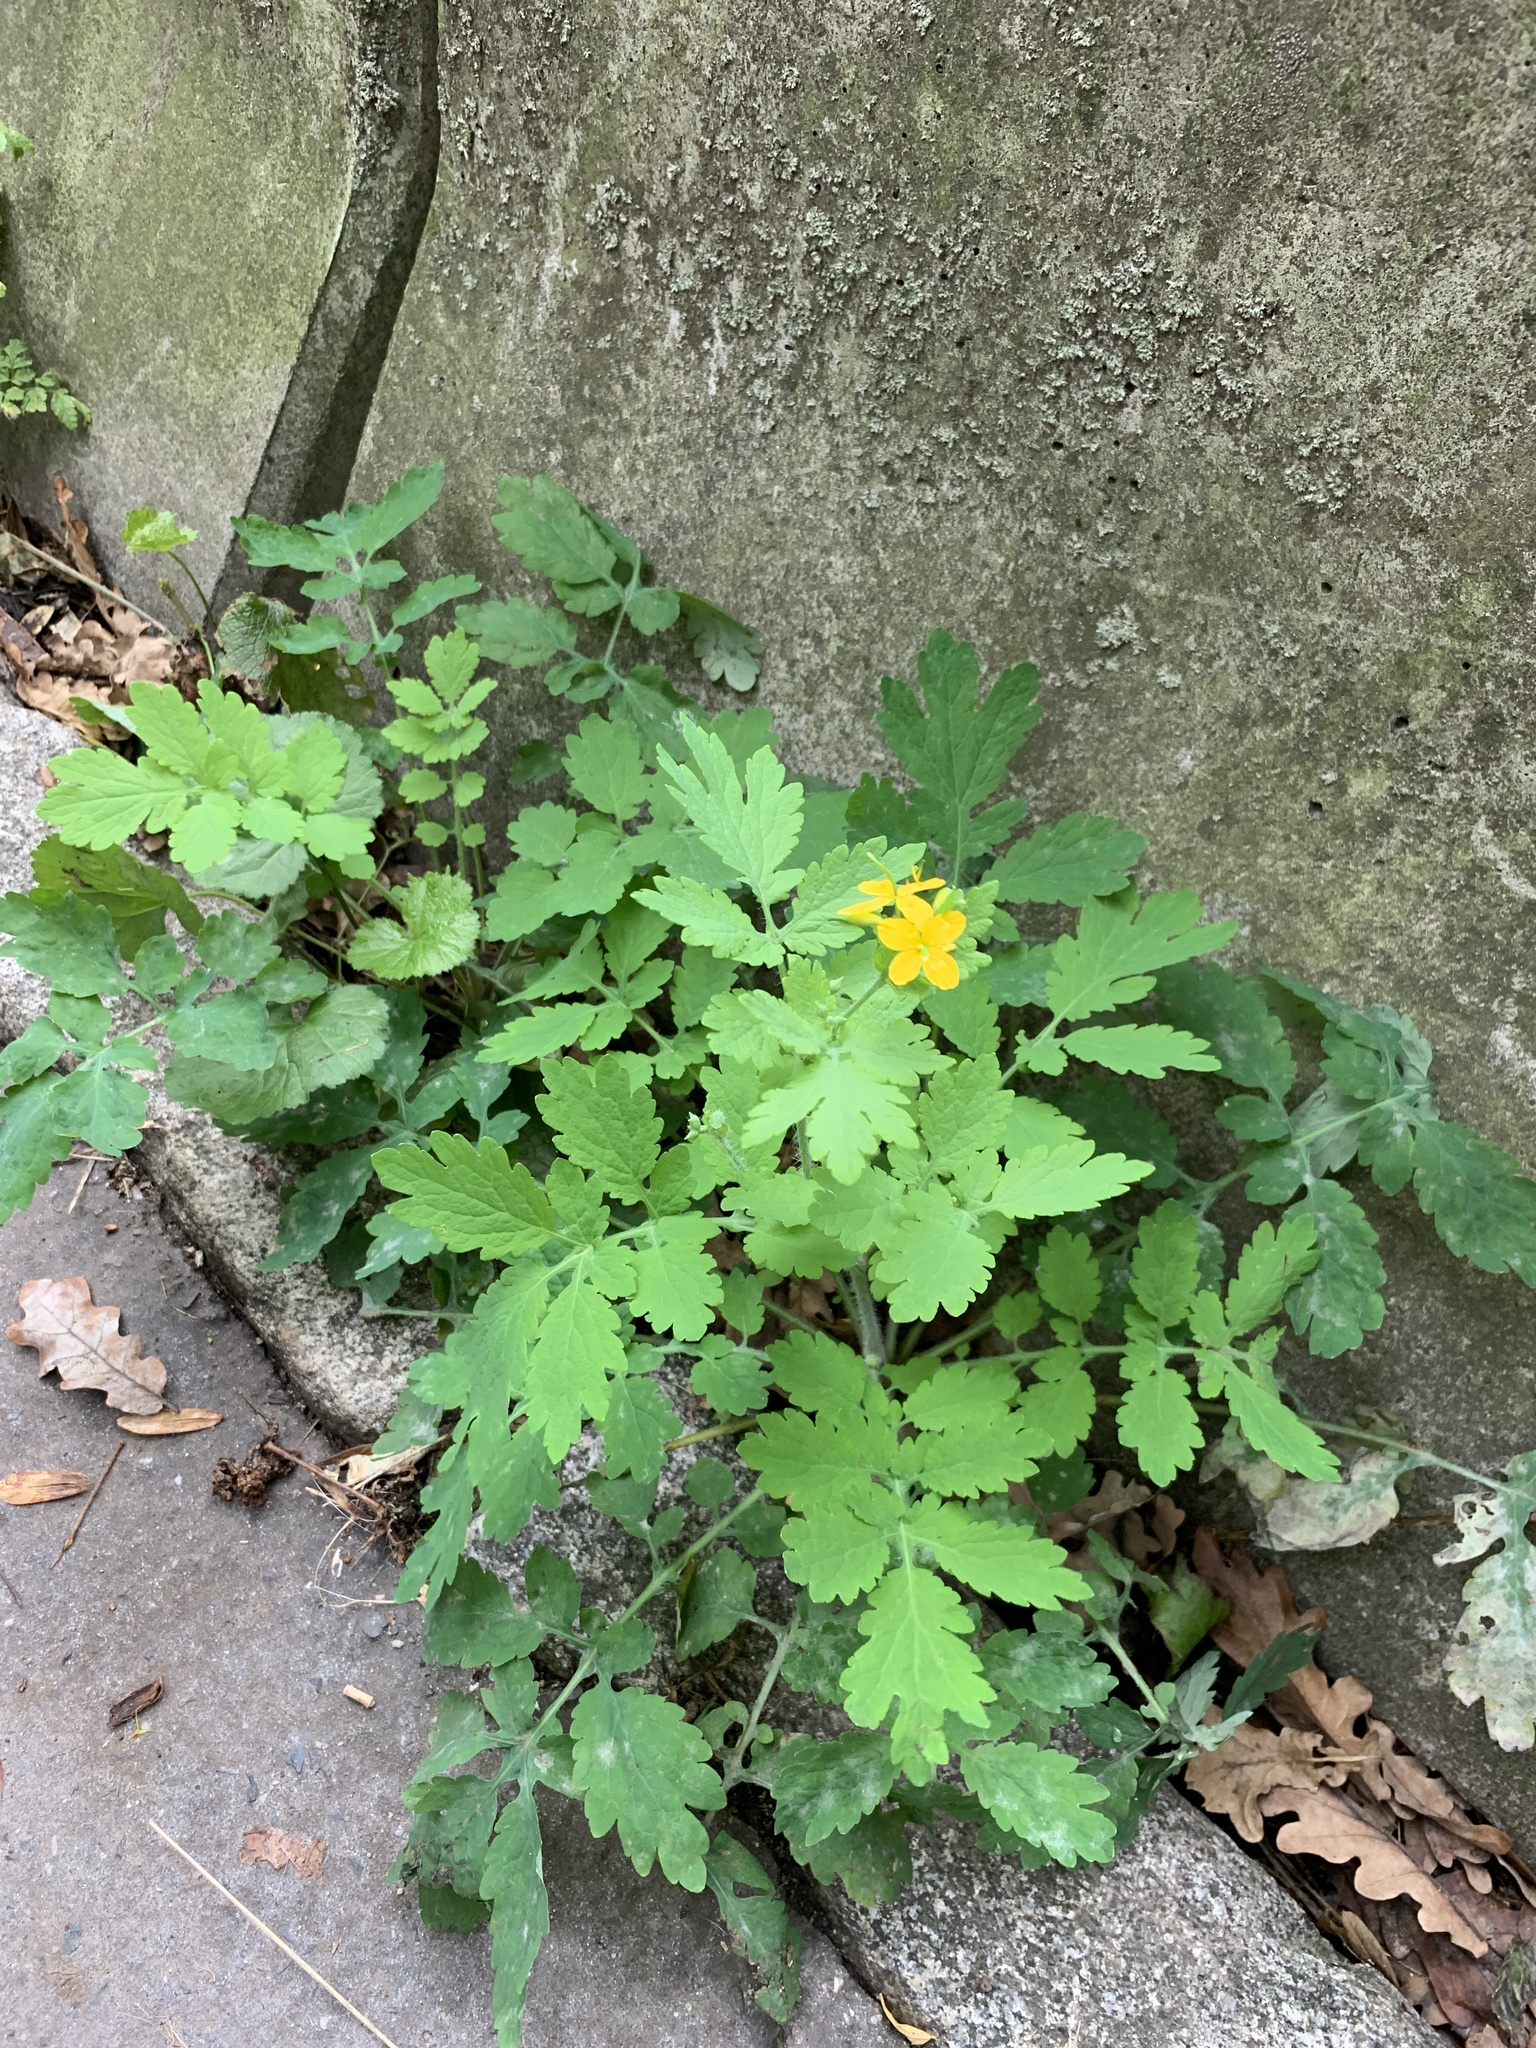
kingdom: Plantae
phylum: Tracheophyta
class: Magnoliopsida
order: Ranunculales
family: Papaveraceae
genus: Chelidonium
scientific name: Chelidonium majus
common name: Greater celandine
